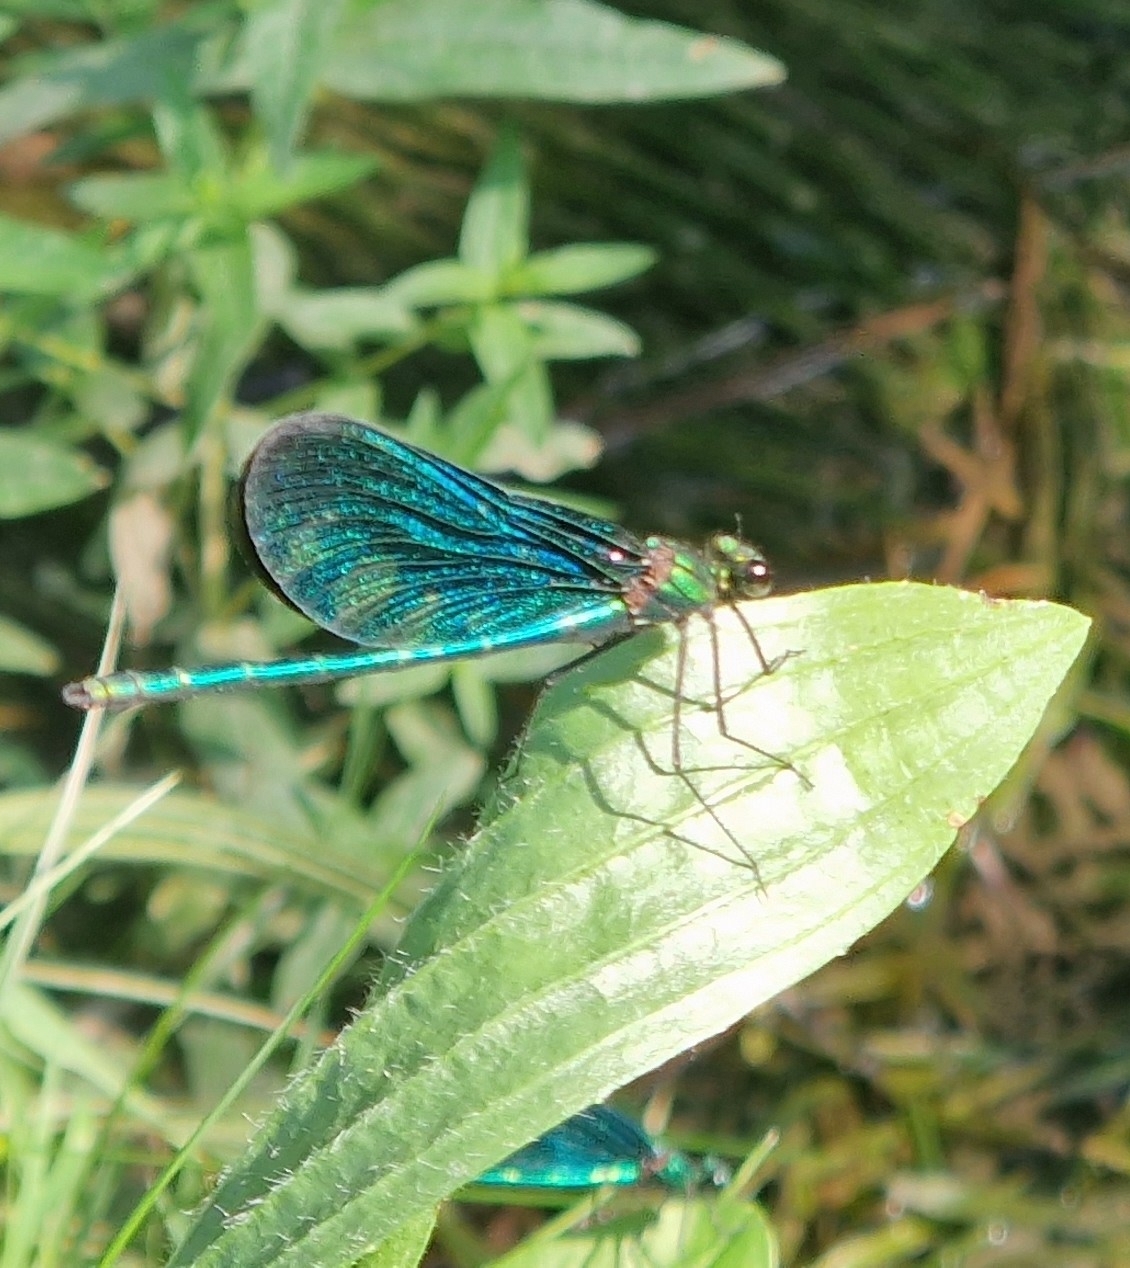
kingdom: Animalia
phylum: Arthropoda
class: Insecta
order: Odonata
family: Calopterygidae
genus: Calopteryx
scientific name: Calopteryx virgo
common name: Beautiful demoiselle
